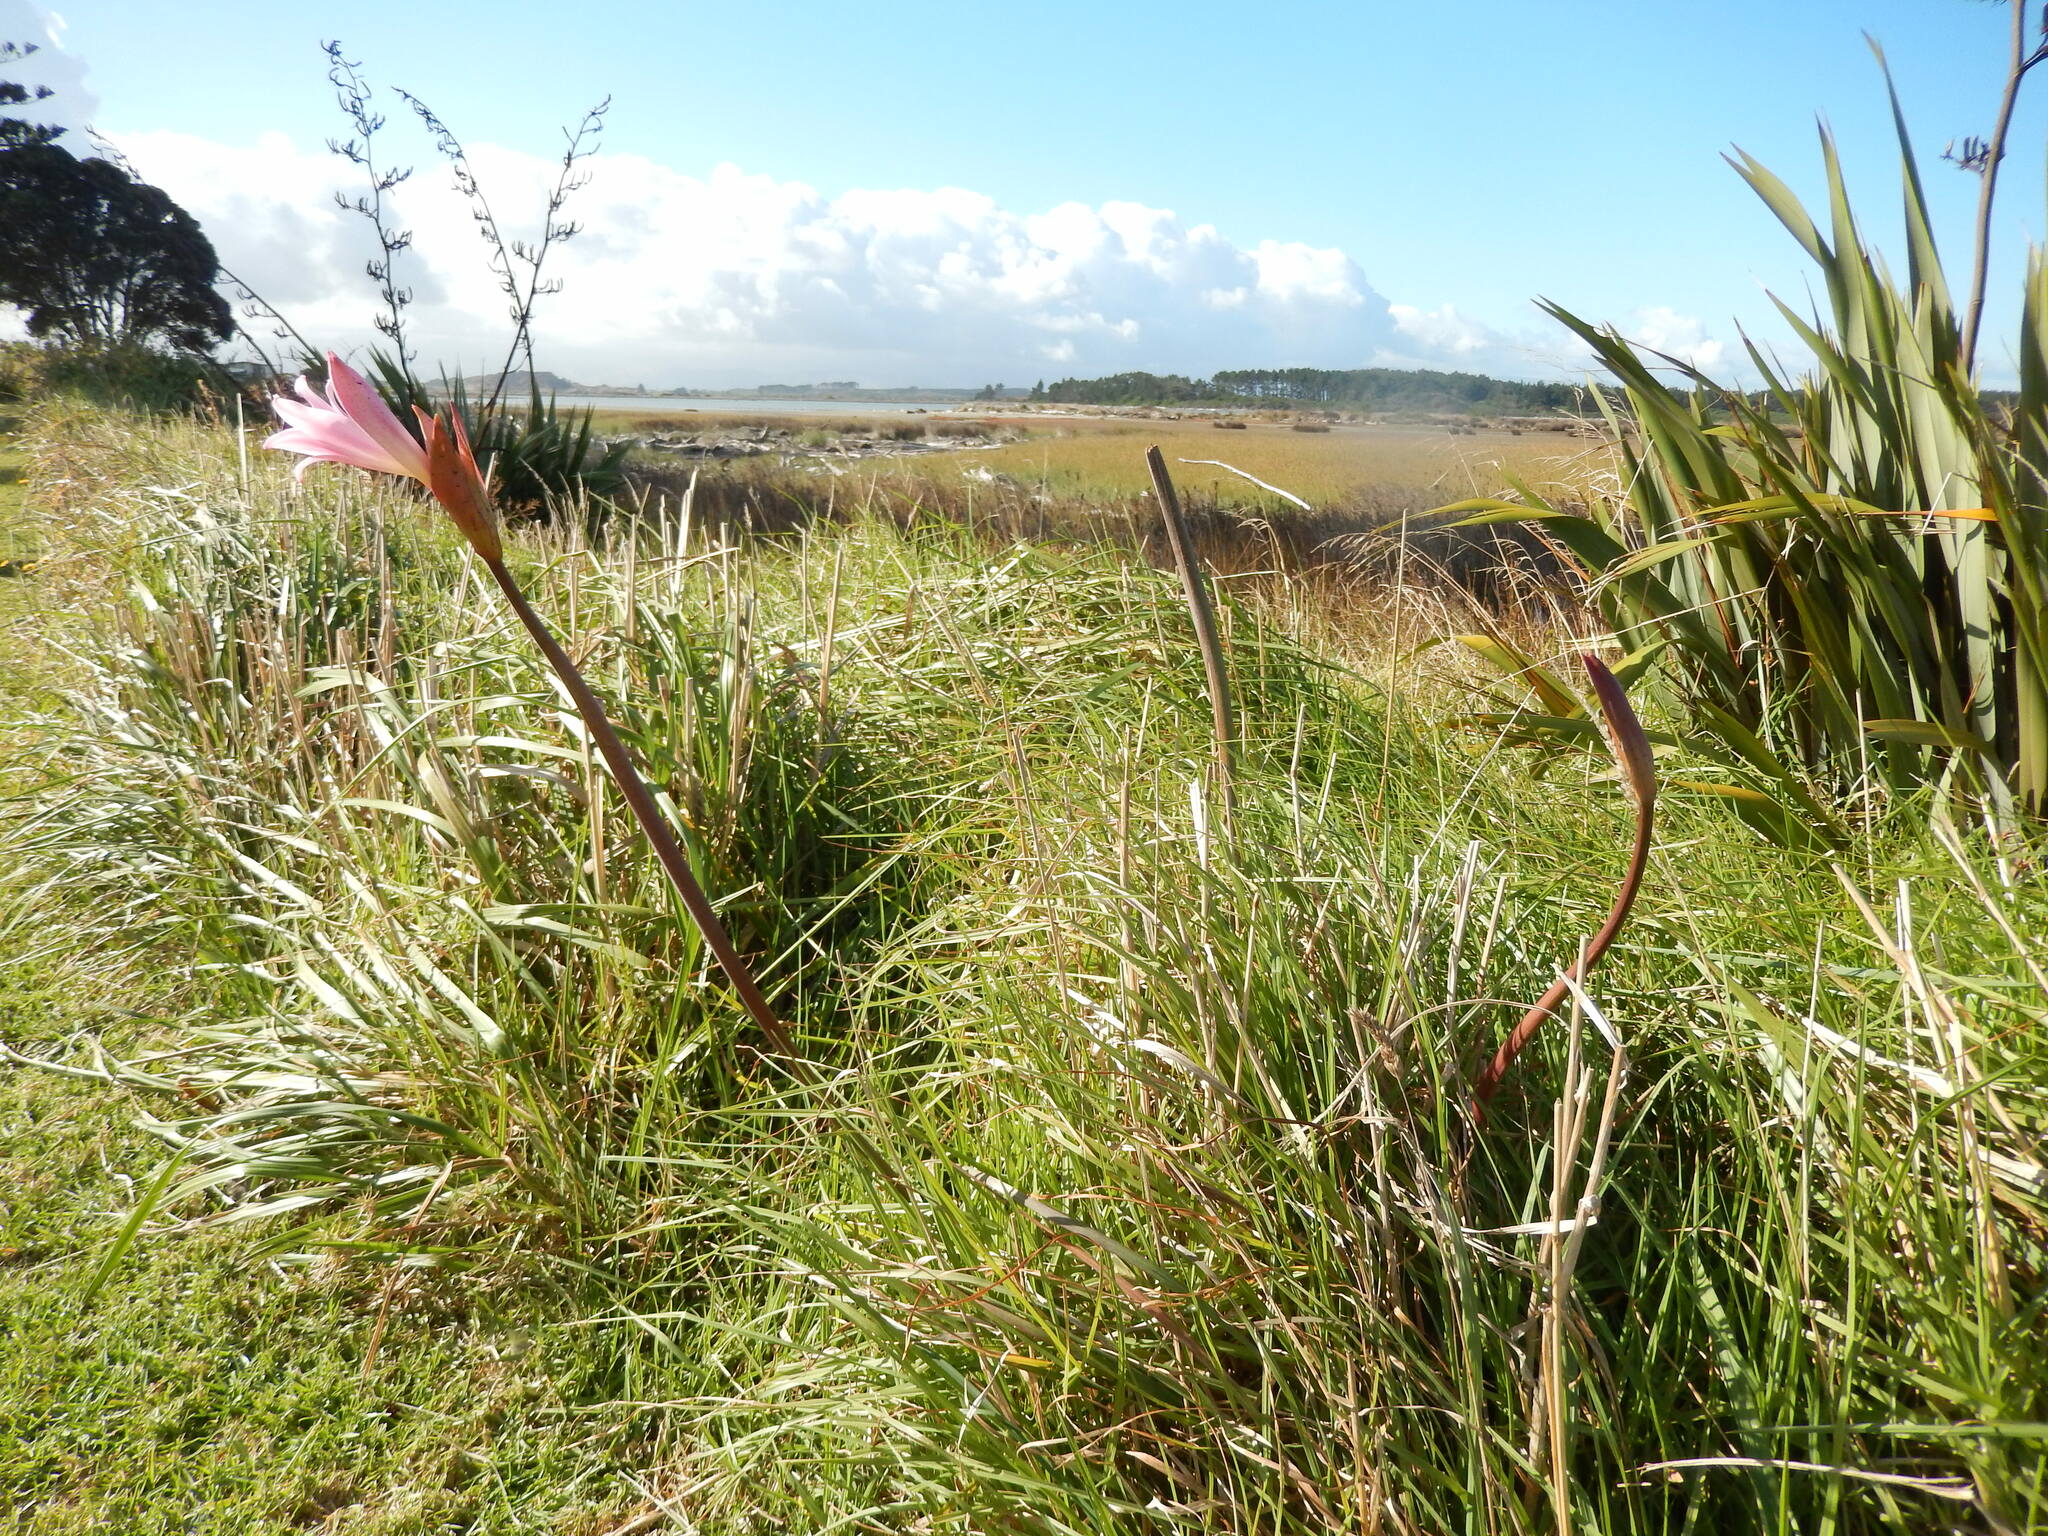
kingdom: Plantae
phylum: Tracheophyta
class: Liliopsida
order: Asparagales
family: Amaryllidaceae
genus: Amaryllis
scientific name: Amaryllis belladonna
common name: Jersey lily
